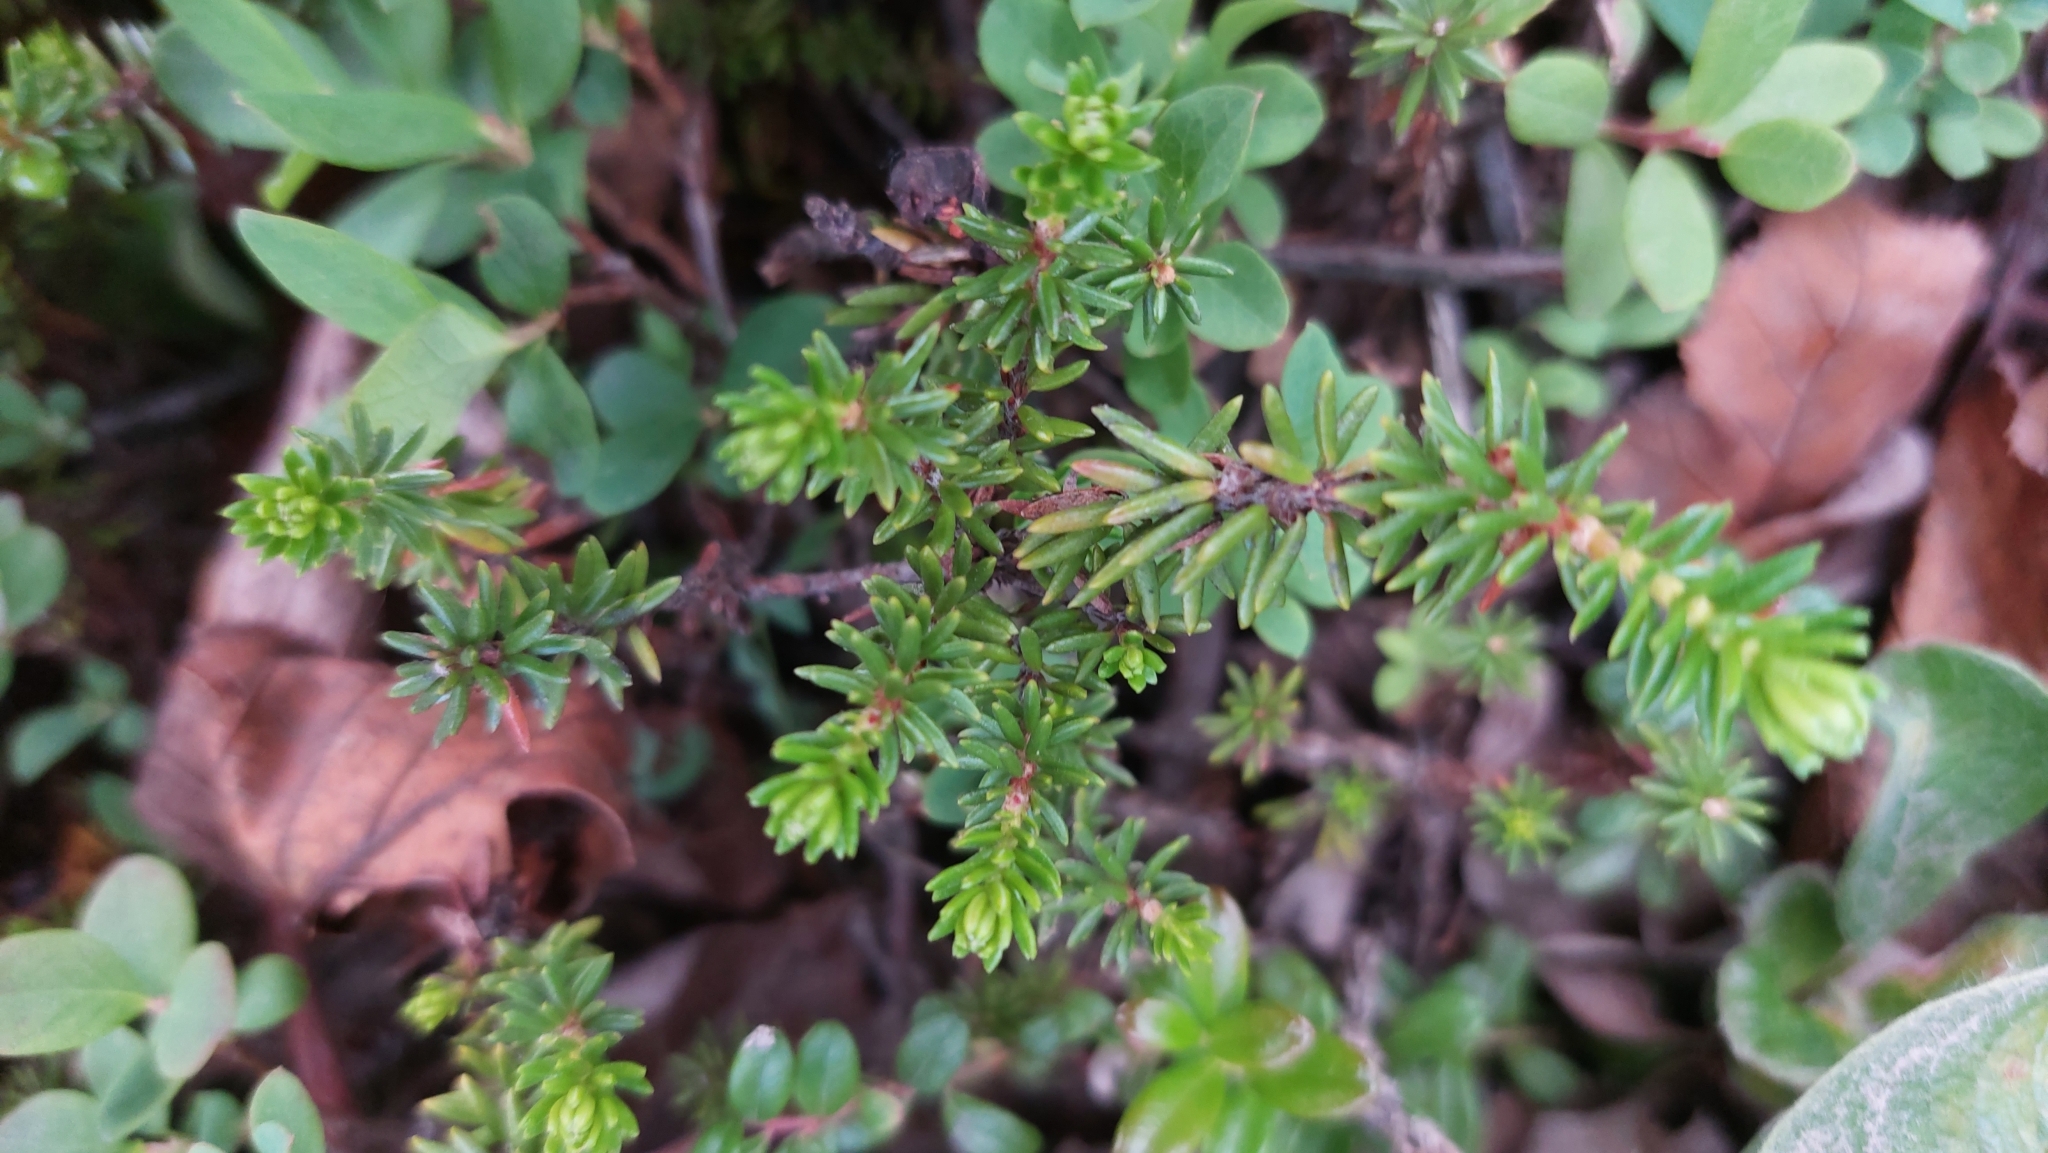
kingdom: Plantae
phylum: Tracheophyta
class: Magnoliopsida
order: Ericales
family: Ericaceae
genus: Empetrum
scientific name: Empetrum nigrum
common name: Black crowberry
